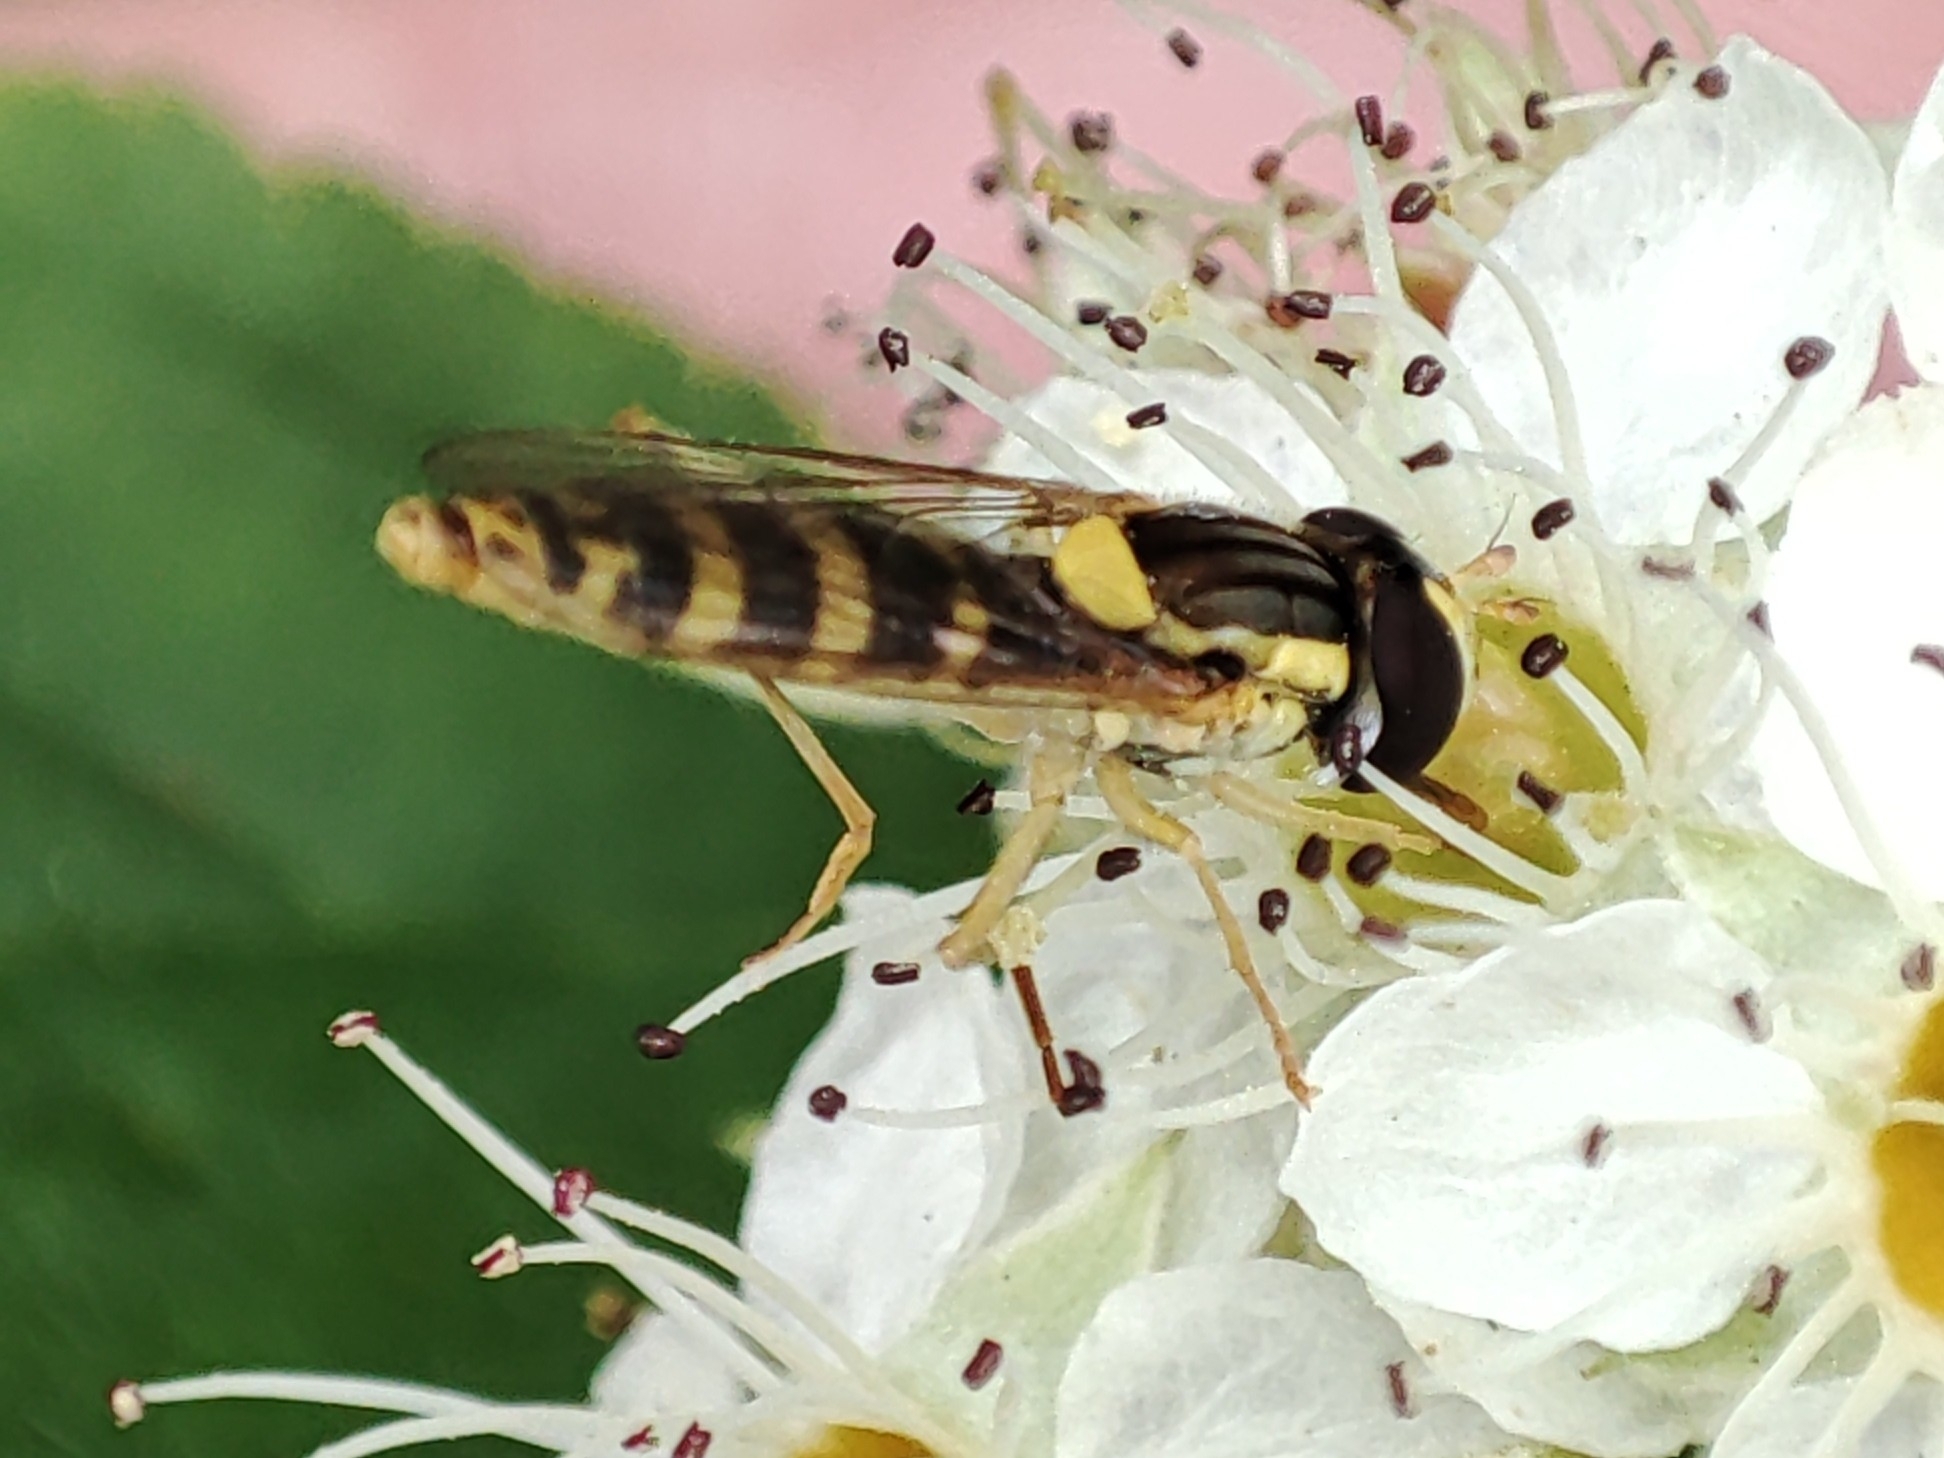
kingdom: Animalia
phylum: Arthropoda
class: Insecta
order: Diptera
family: Syrphidae
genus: Sphaerophoria
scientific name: Sphaerophoria
